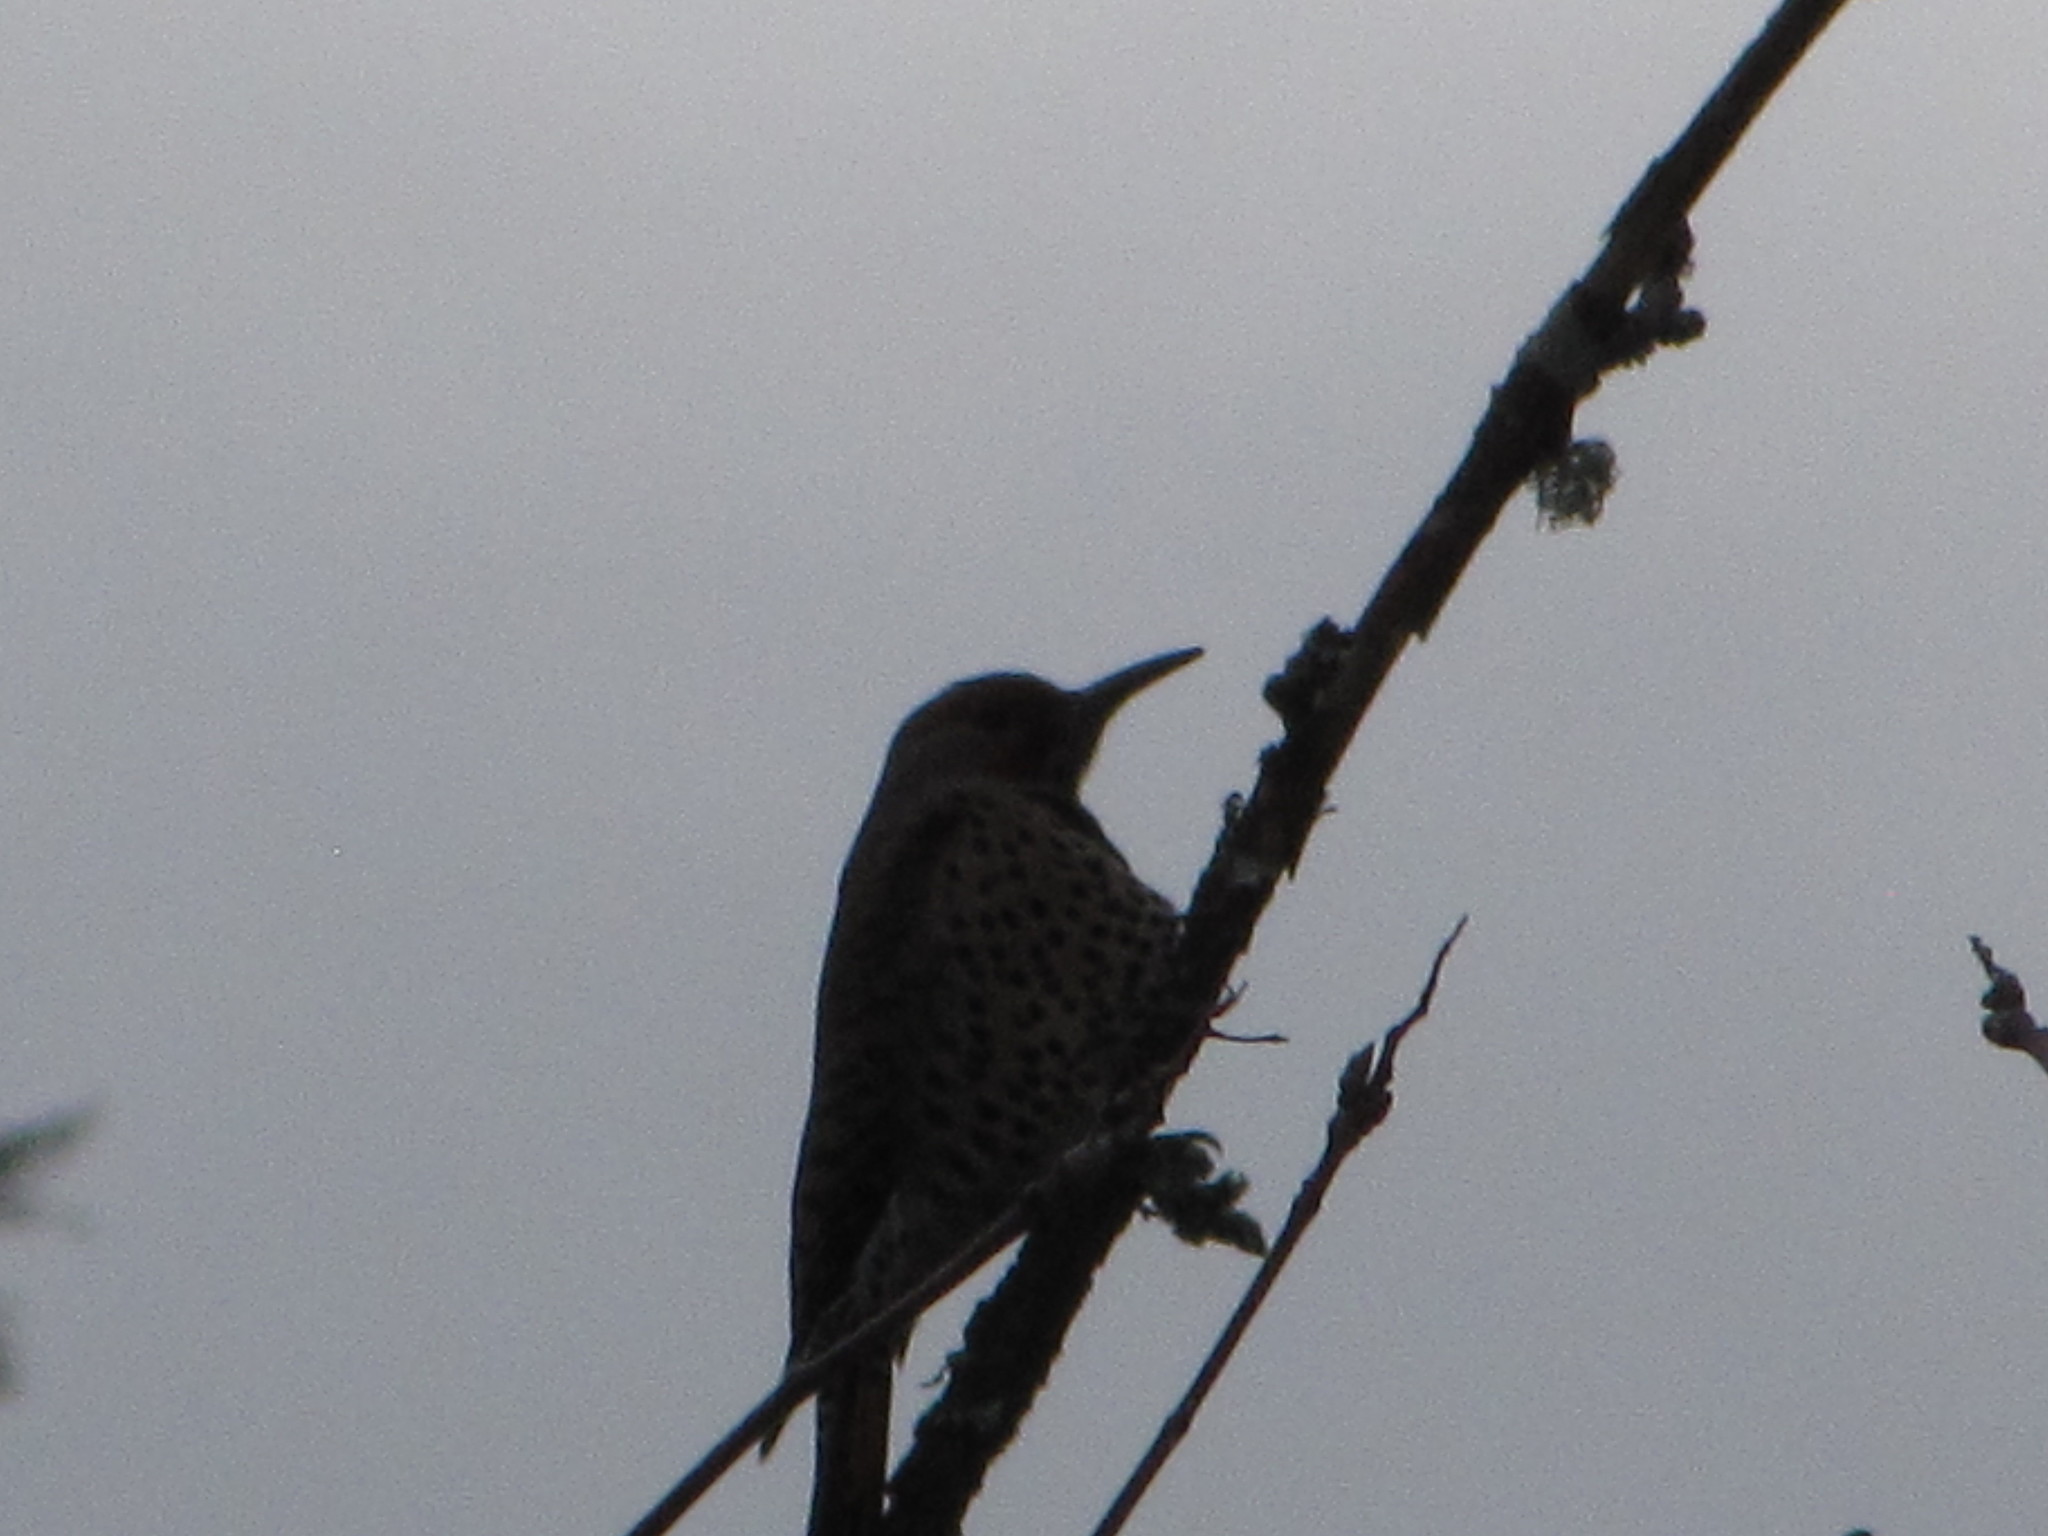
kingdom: Animalia
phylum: Chordata
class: Aves
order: Piciformes
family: Picidae
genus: Colaptes
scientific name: Colaptes auratus
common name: Northern flicker
